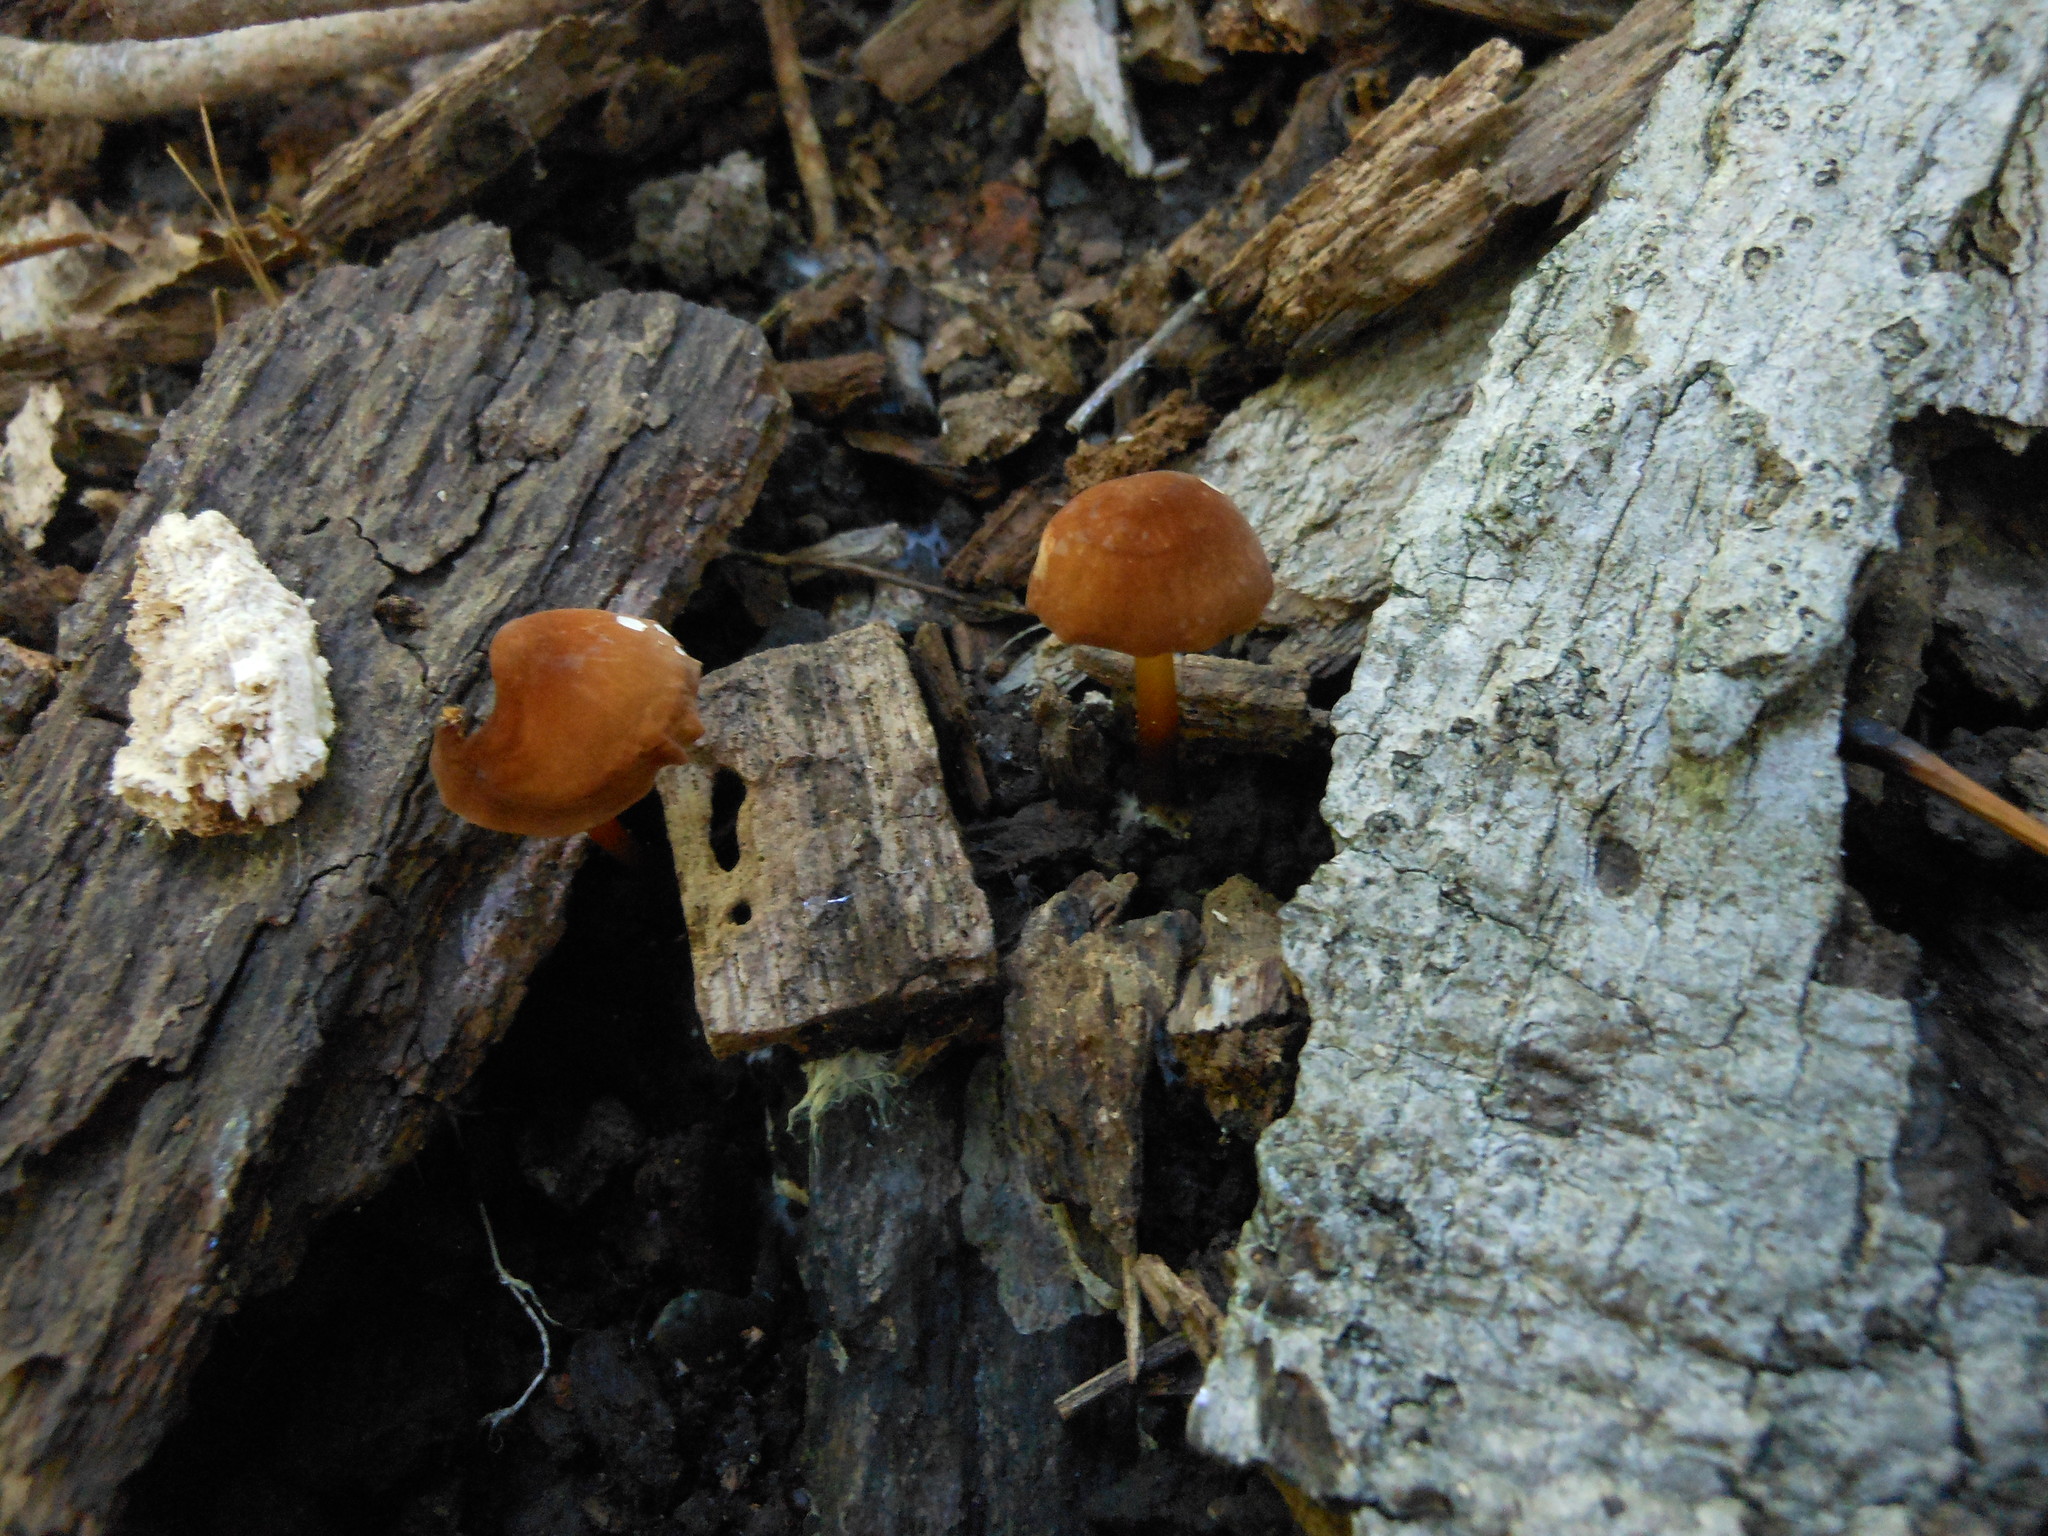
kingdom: Fungi
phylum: Basidiomycota
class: Agaricomycetes
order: Agaricales
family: Marasmiaceae
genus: Marasmius
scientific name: Marasmius cohaerens
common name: Bristled parachute
